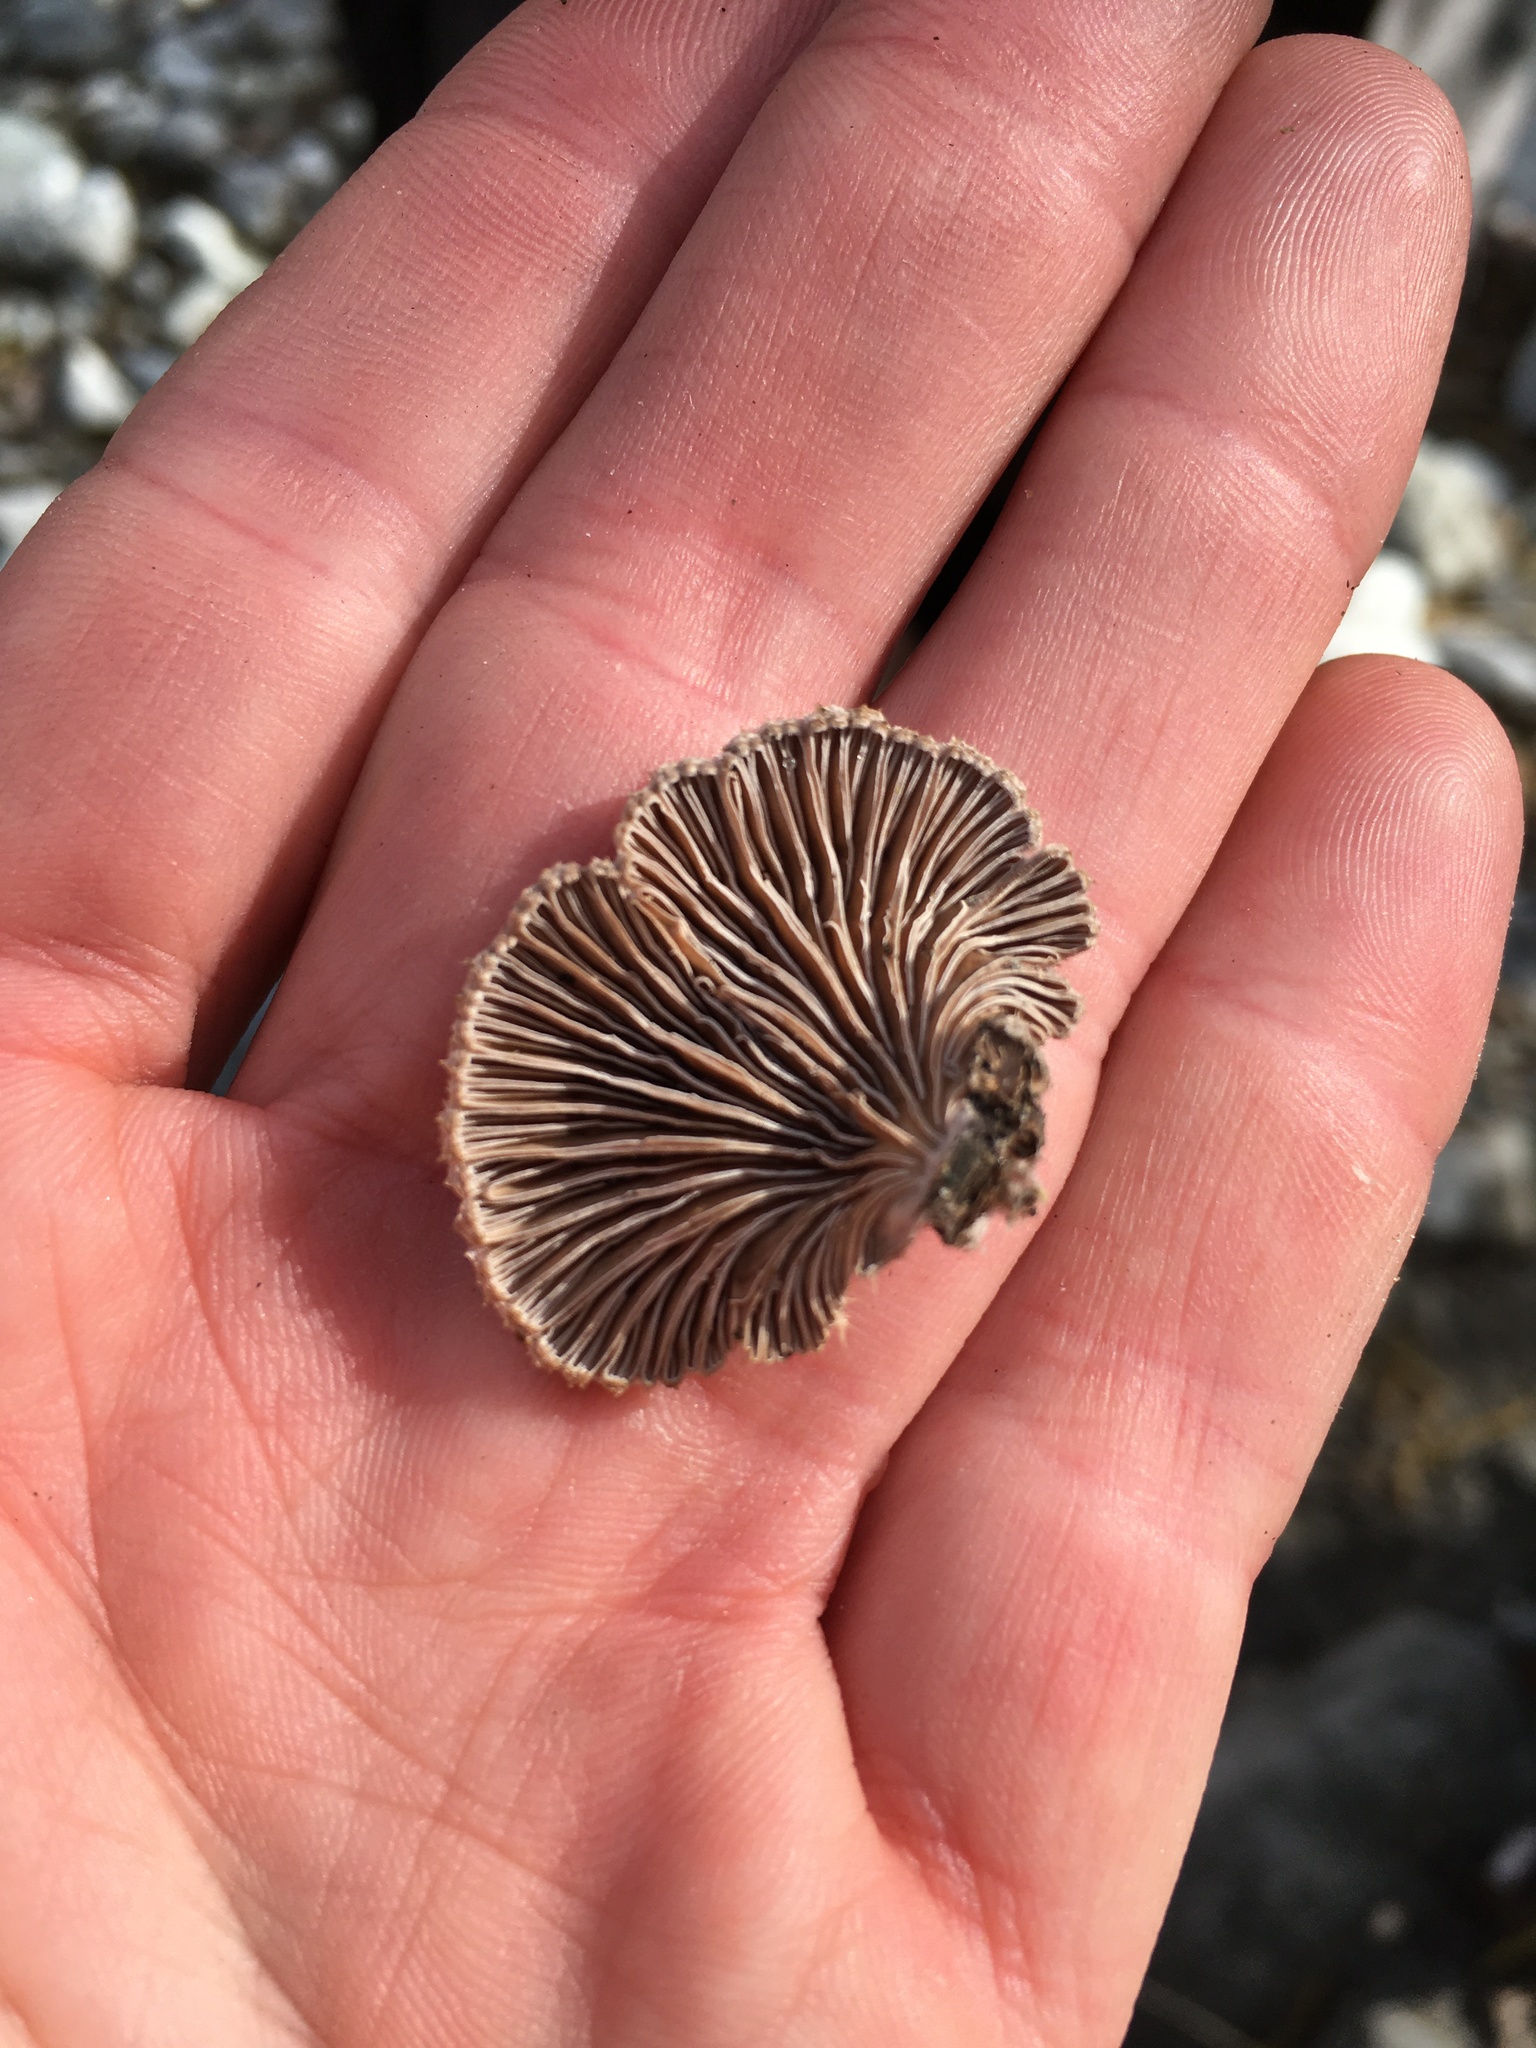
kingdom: Fungi
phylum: Basidiomycota
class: Agaricomycetes
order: Agaricales
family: Schizophyllaceae
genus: Schizophyllum
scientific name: Schizophyllum commune
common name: Common porecrust
